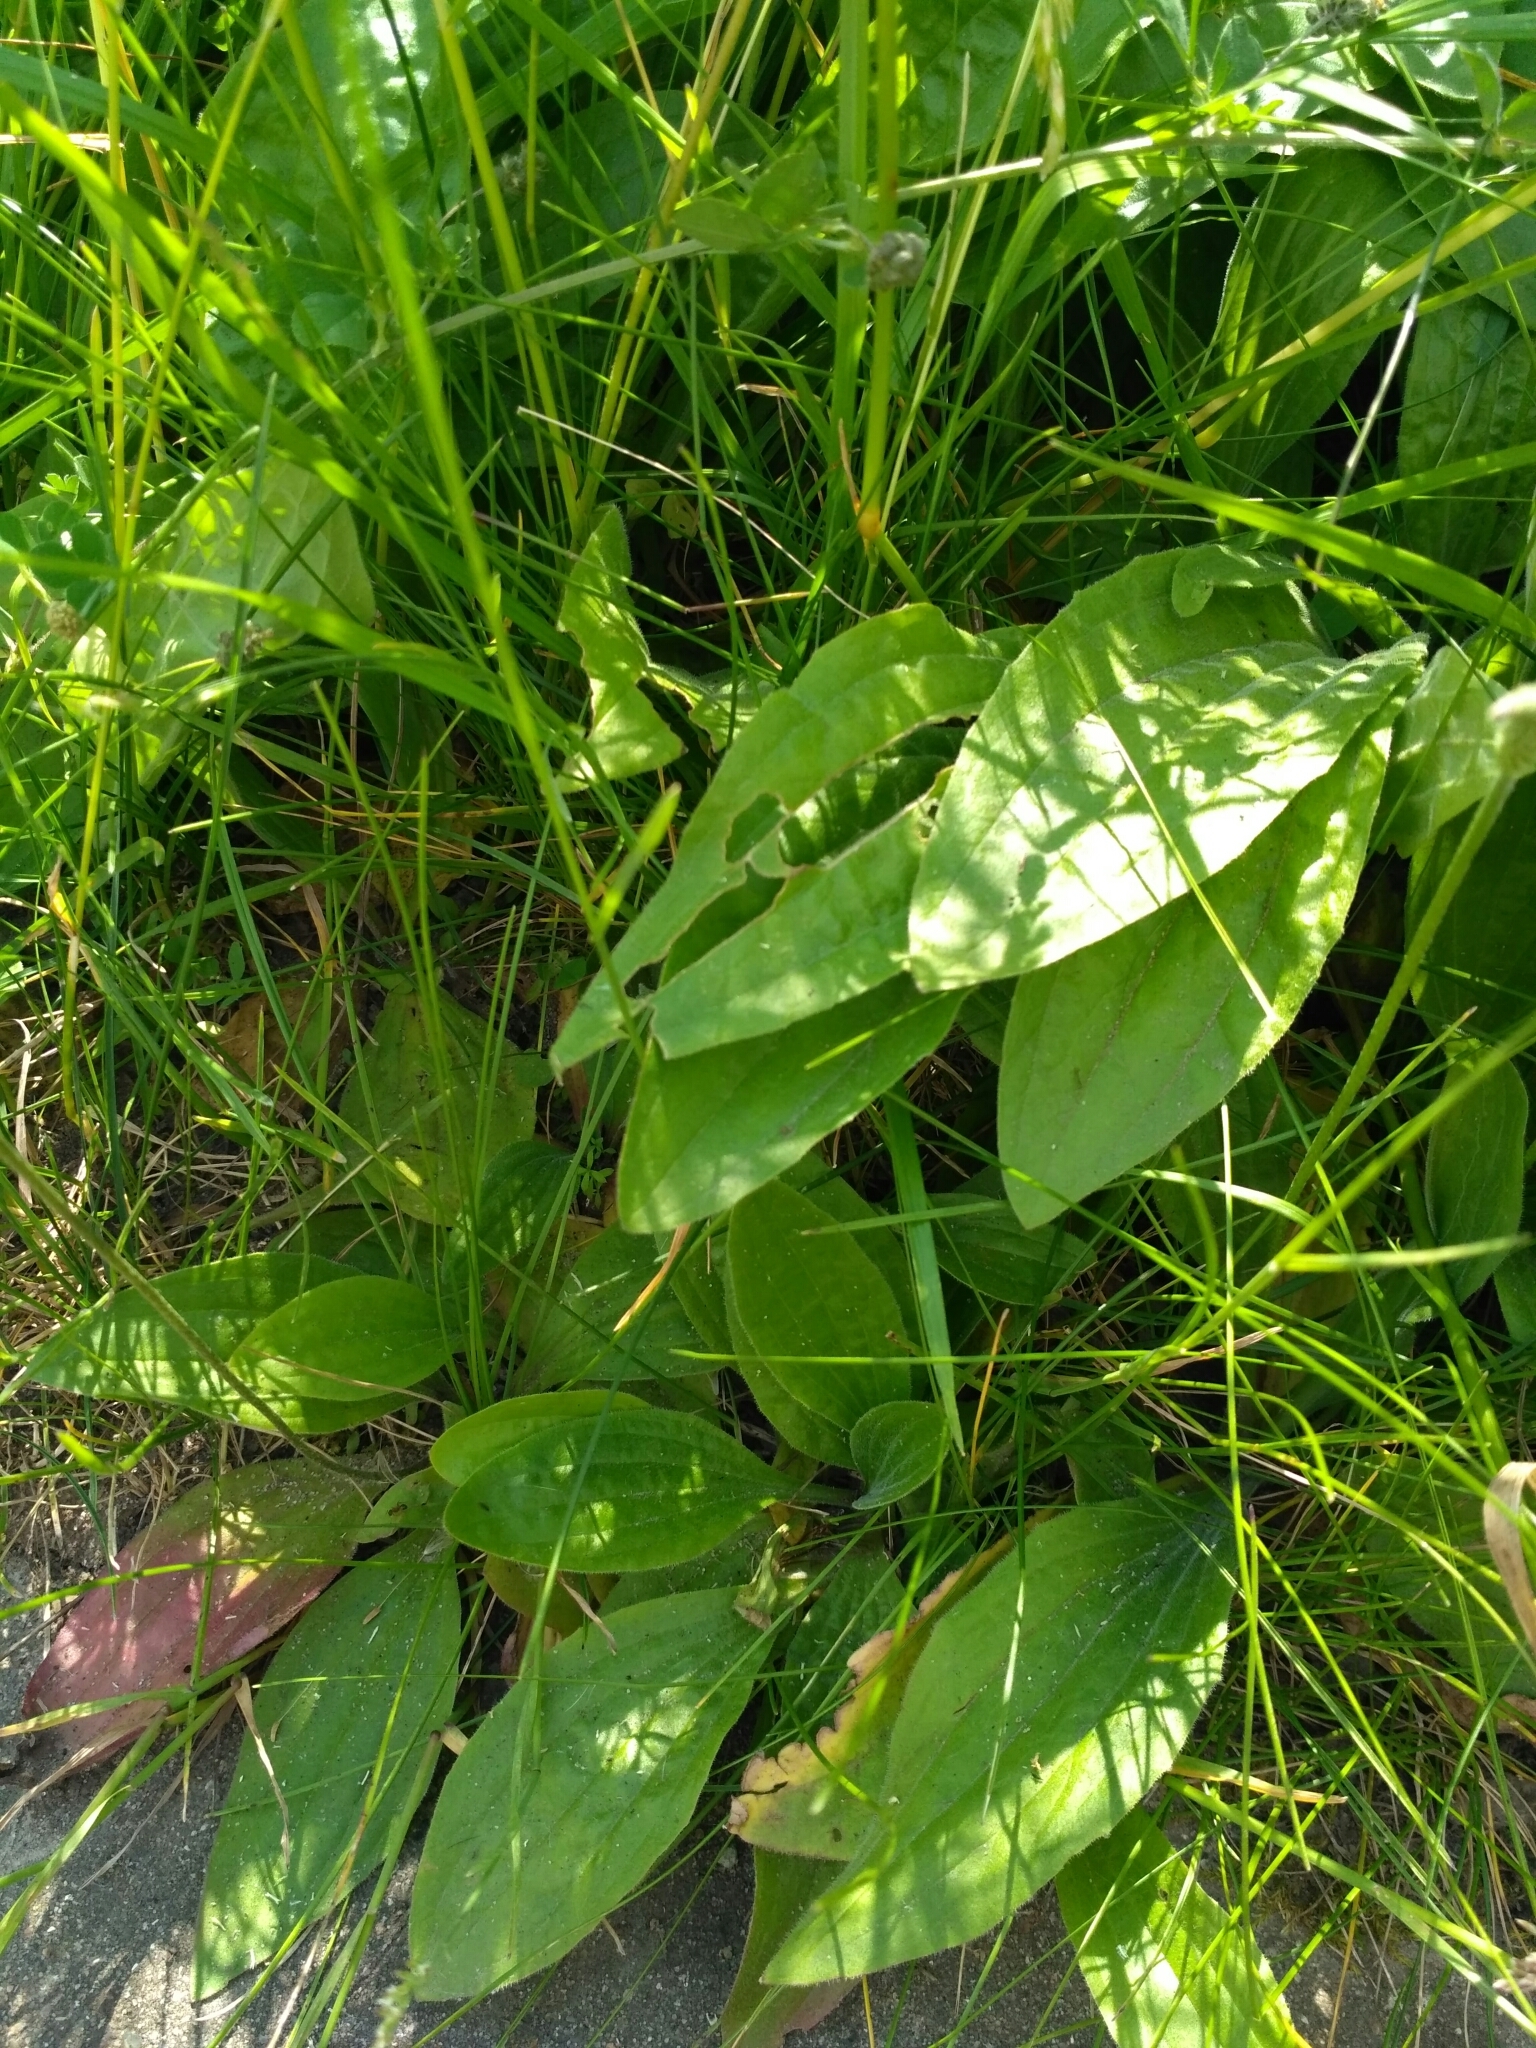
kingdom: Plantae
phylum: Tracheophyta
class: Magnoliopsida
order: Lamiales
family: Plantaginaceae
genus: Plantago
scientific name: Plantago media
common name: Hoary plantain
